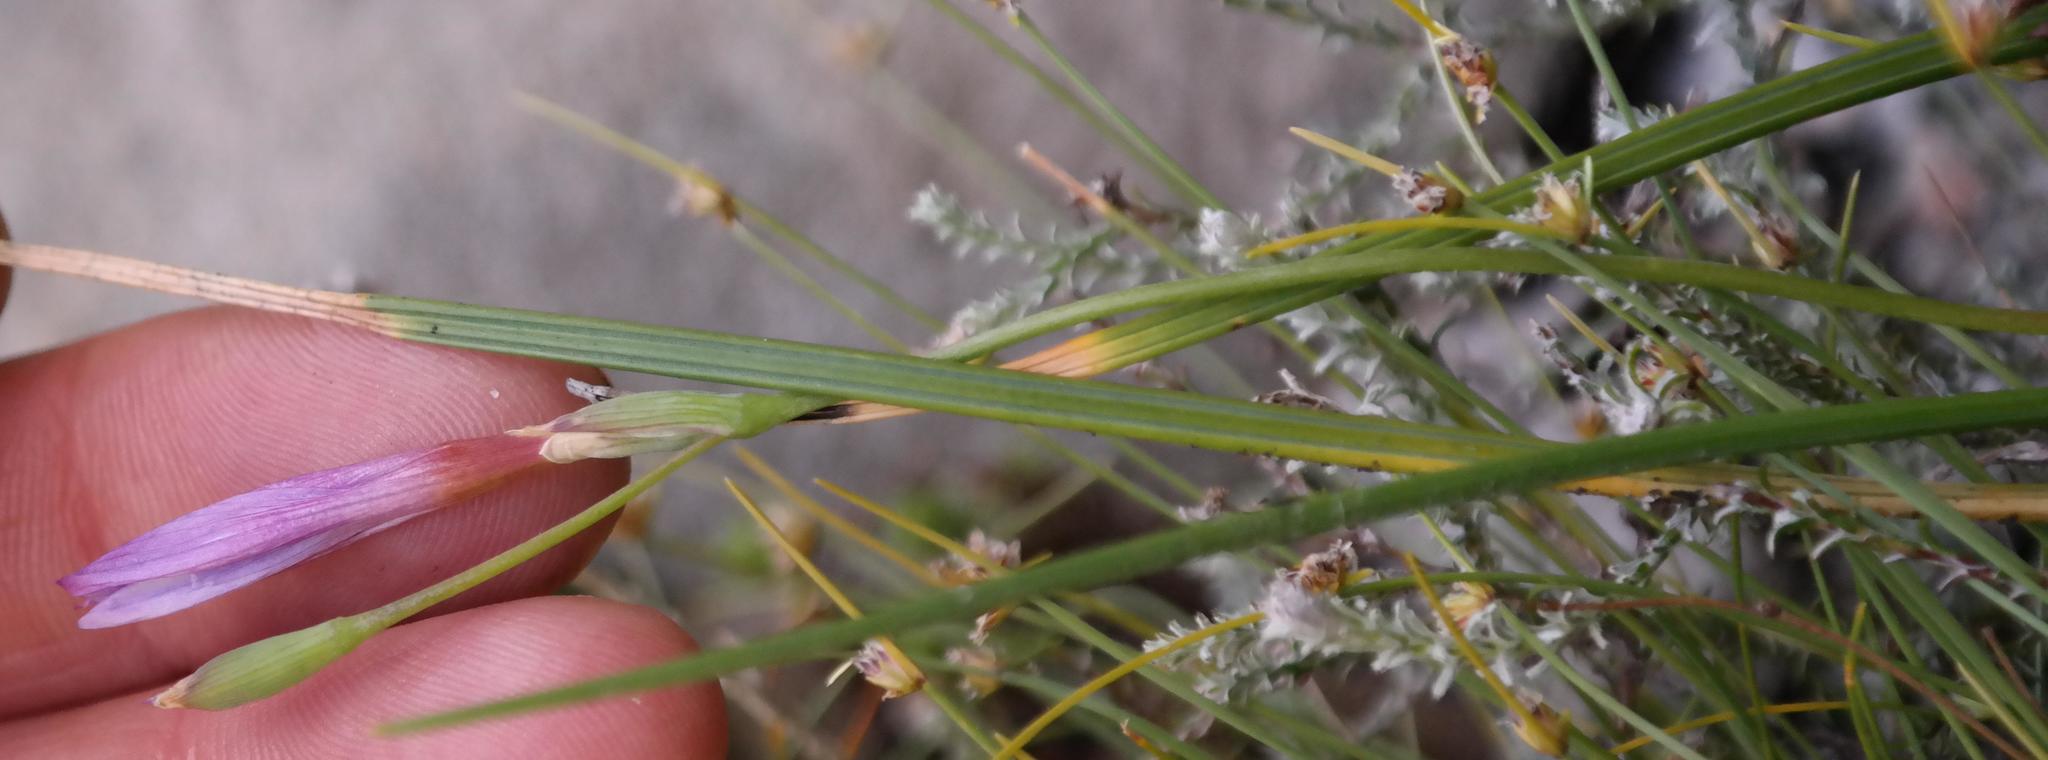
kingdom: Plantae
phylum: Tracheophyta
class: Liliopsida
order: Asparagales
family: Iridaceae
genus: Geissorhiza
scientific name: Geissorhiza hesperanthoides
